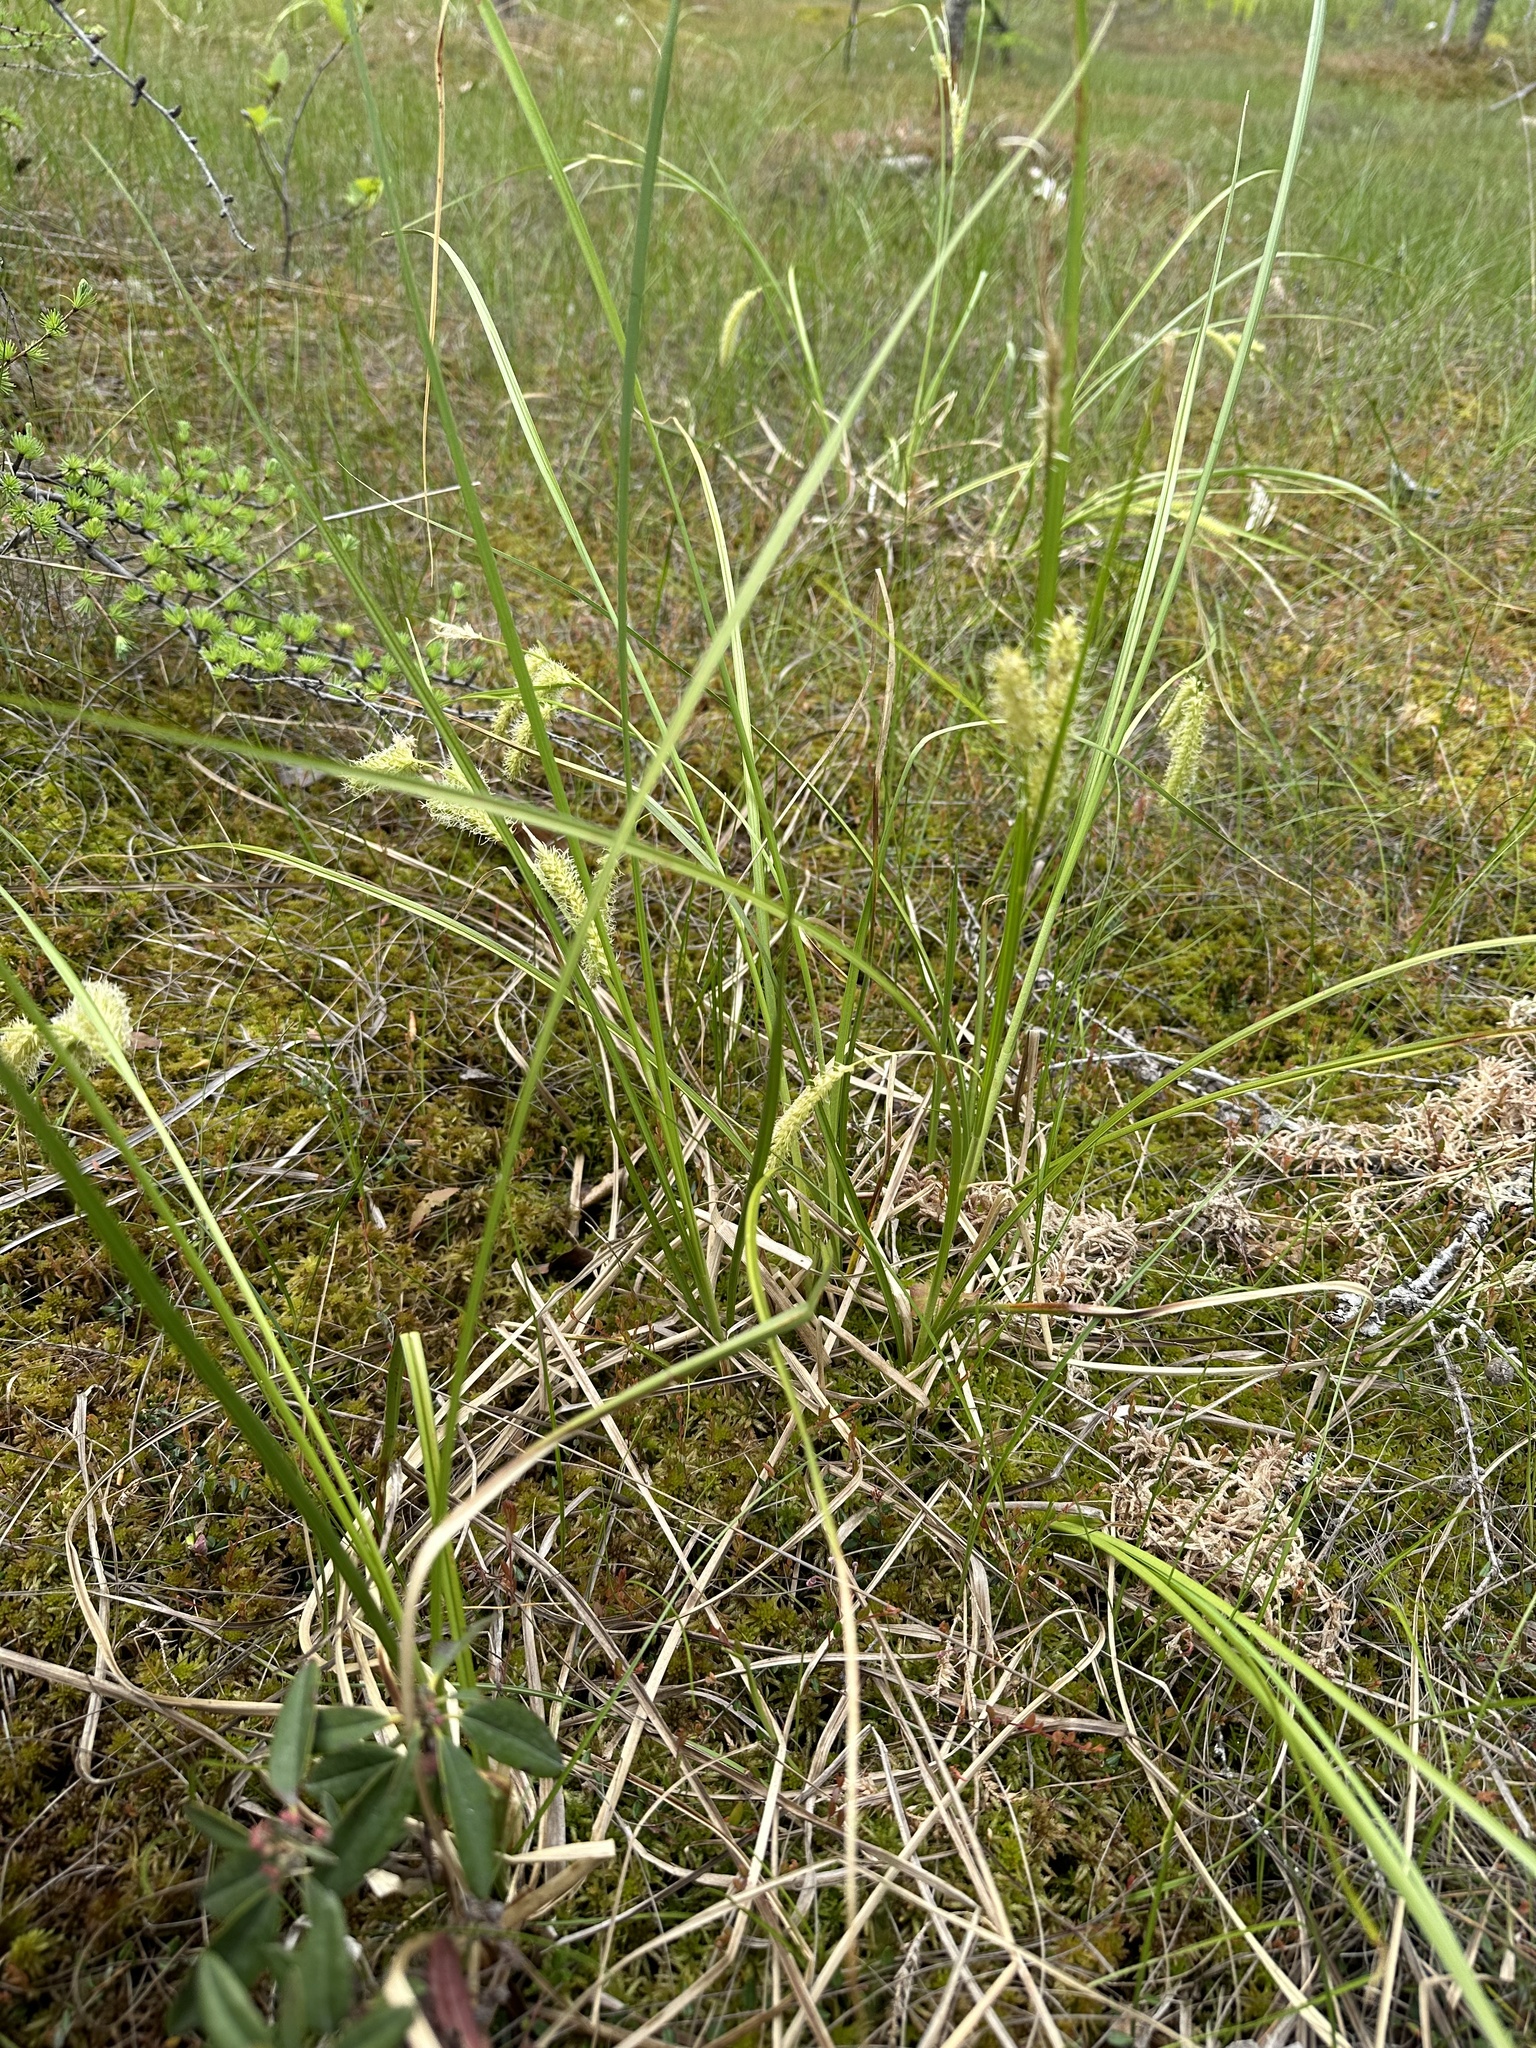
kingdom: Plantae
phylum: Tracheophyta
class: Liliopsida
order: Poales
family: Cyperaceae
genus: Carex
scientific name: Carex utriculata
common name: Beaked sedge
